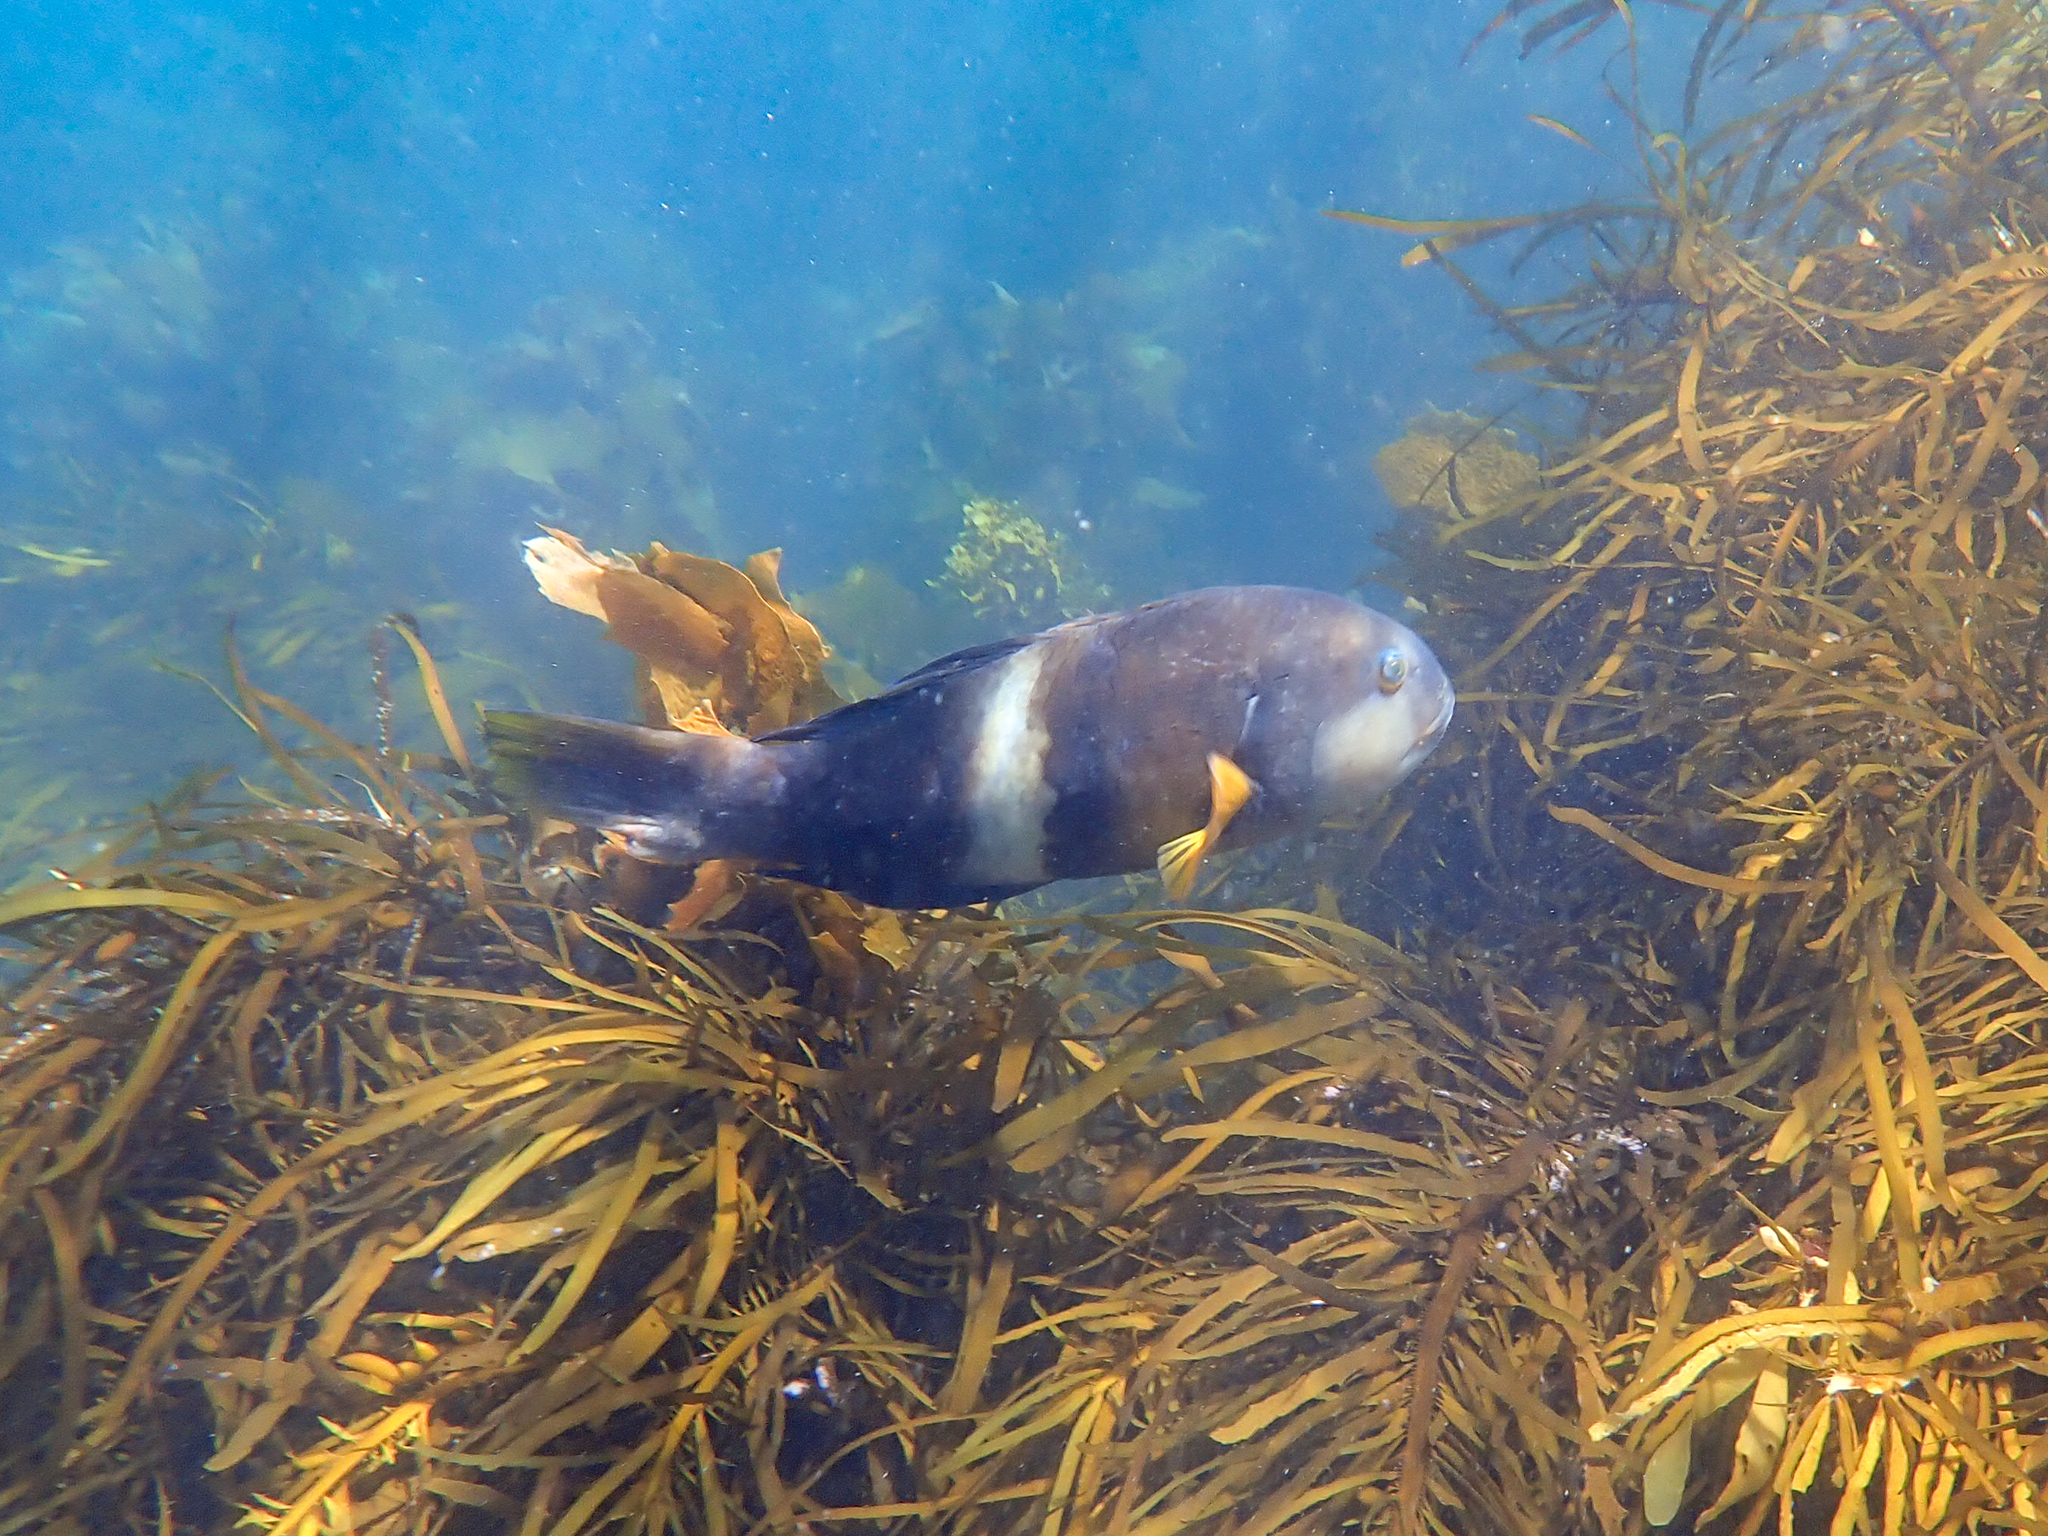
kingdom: Animalia
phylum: Chordata
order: Perciformes
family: Labridae
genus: Notolabrus
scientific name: Notolabrus tetricus
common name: Blue-throated parrotfish
